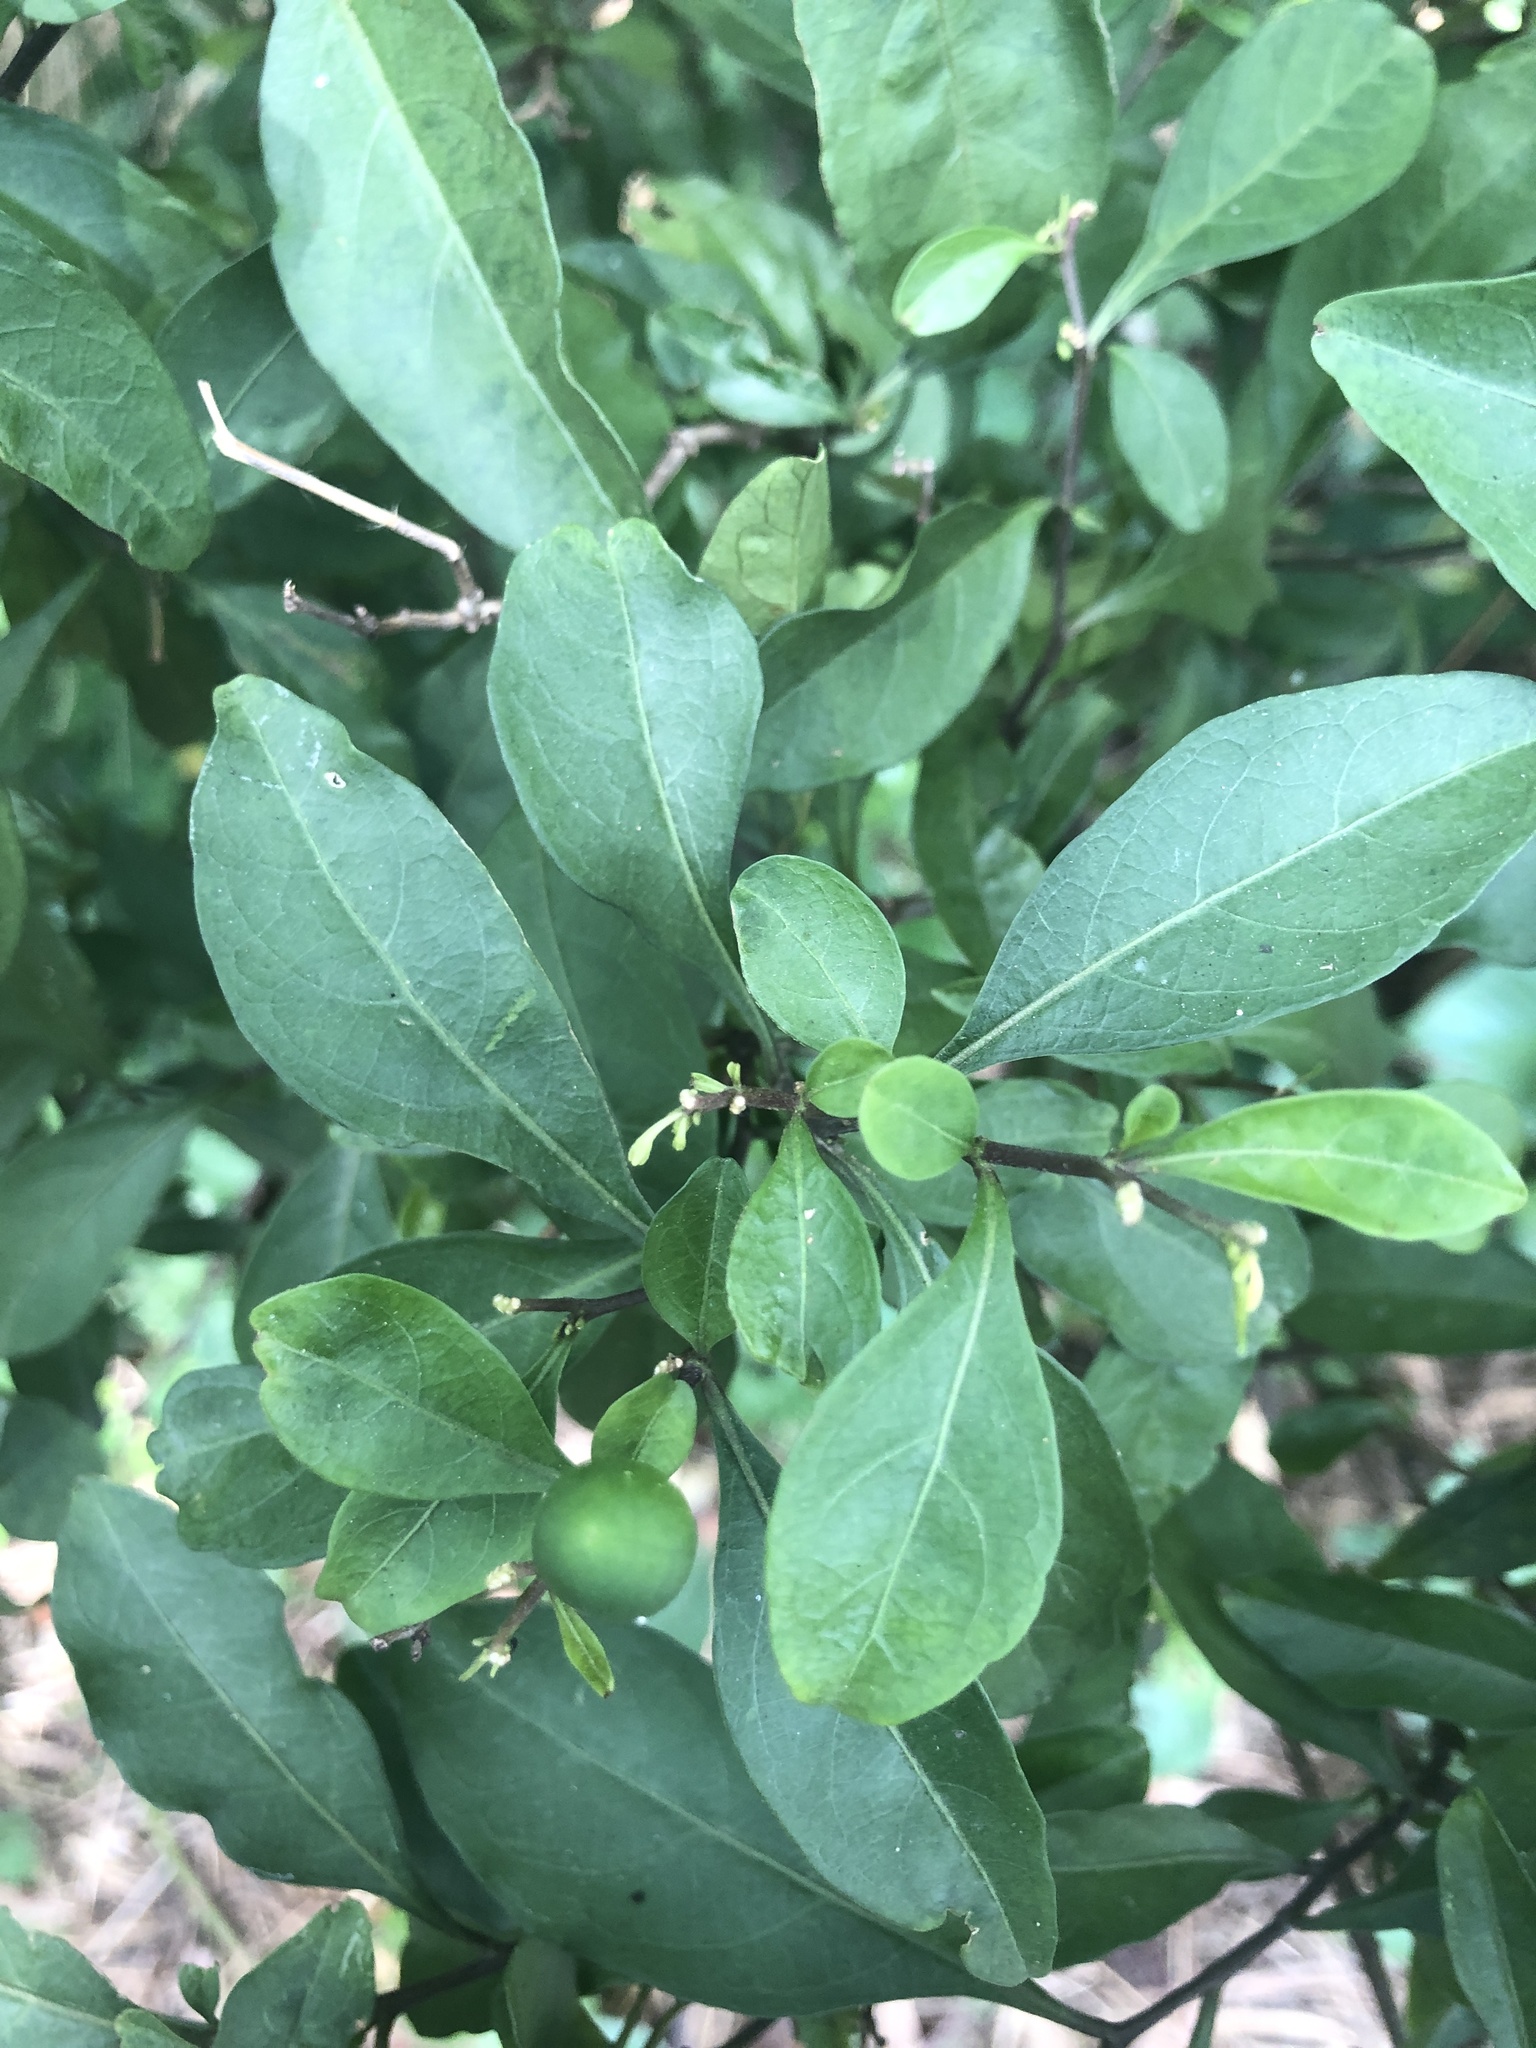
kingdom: Plantae
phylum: Tracheophyta
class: Magnoliopsida
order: Solanales
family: Solanaceae
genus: Solanum
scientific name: Solanum diphyllum
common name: Twoleaf nightshade
